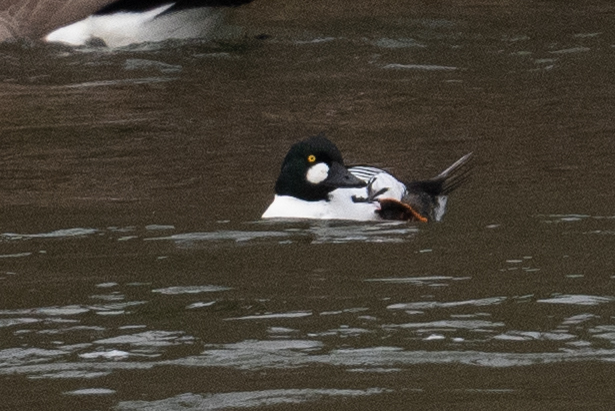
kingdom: Animalia
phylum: Chordata
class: Aves
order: Anseriformes
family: Anatidae
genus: Bucephala
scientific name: Bucephala clangula
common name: Common goldeneye
